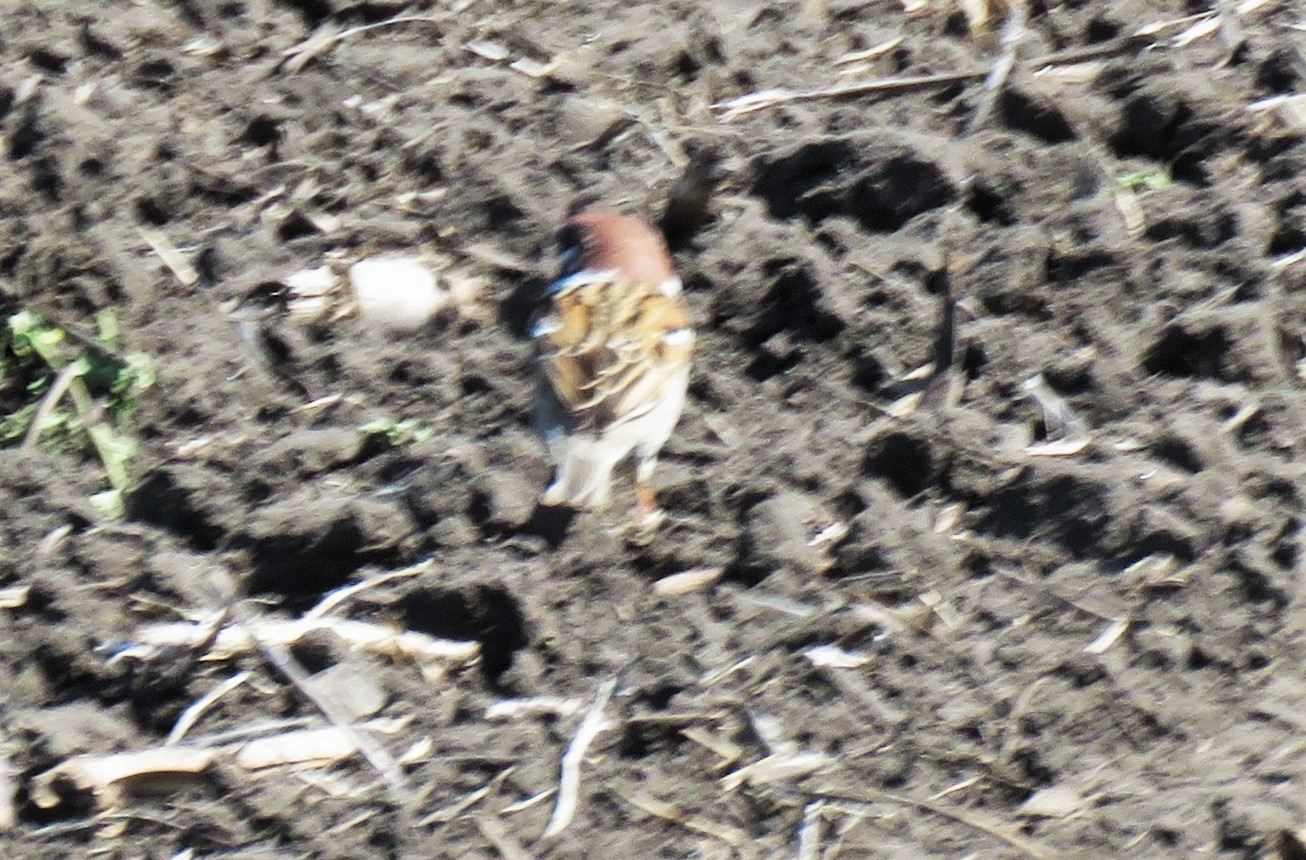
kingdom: Animalia
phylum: Chordata
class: Aves
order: Passeriformes
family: Passeridae
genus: Passer
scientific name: Passer montanus
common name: Eurasian tree sparrow
